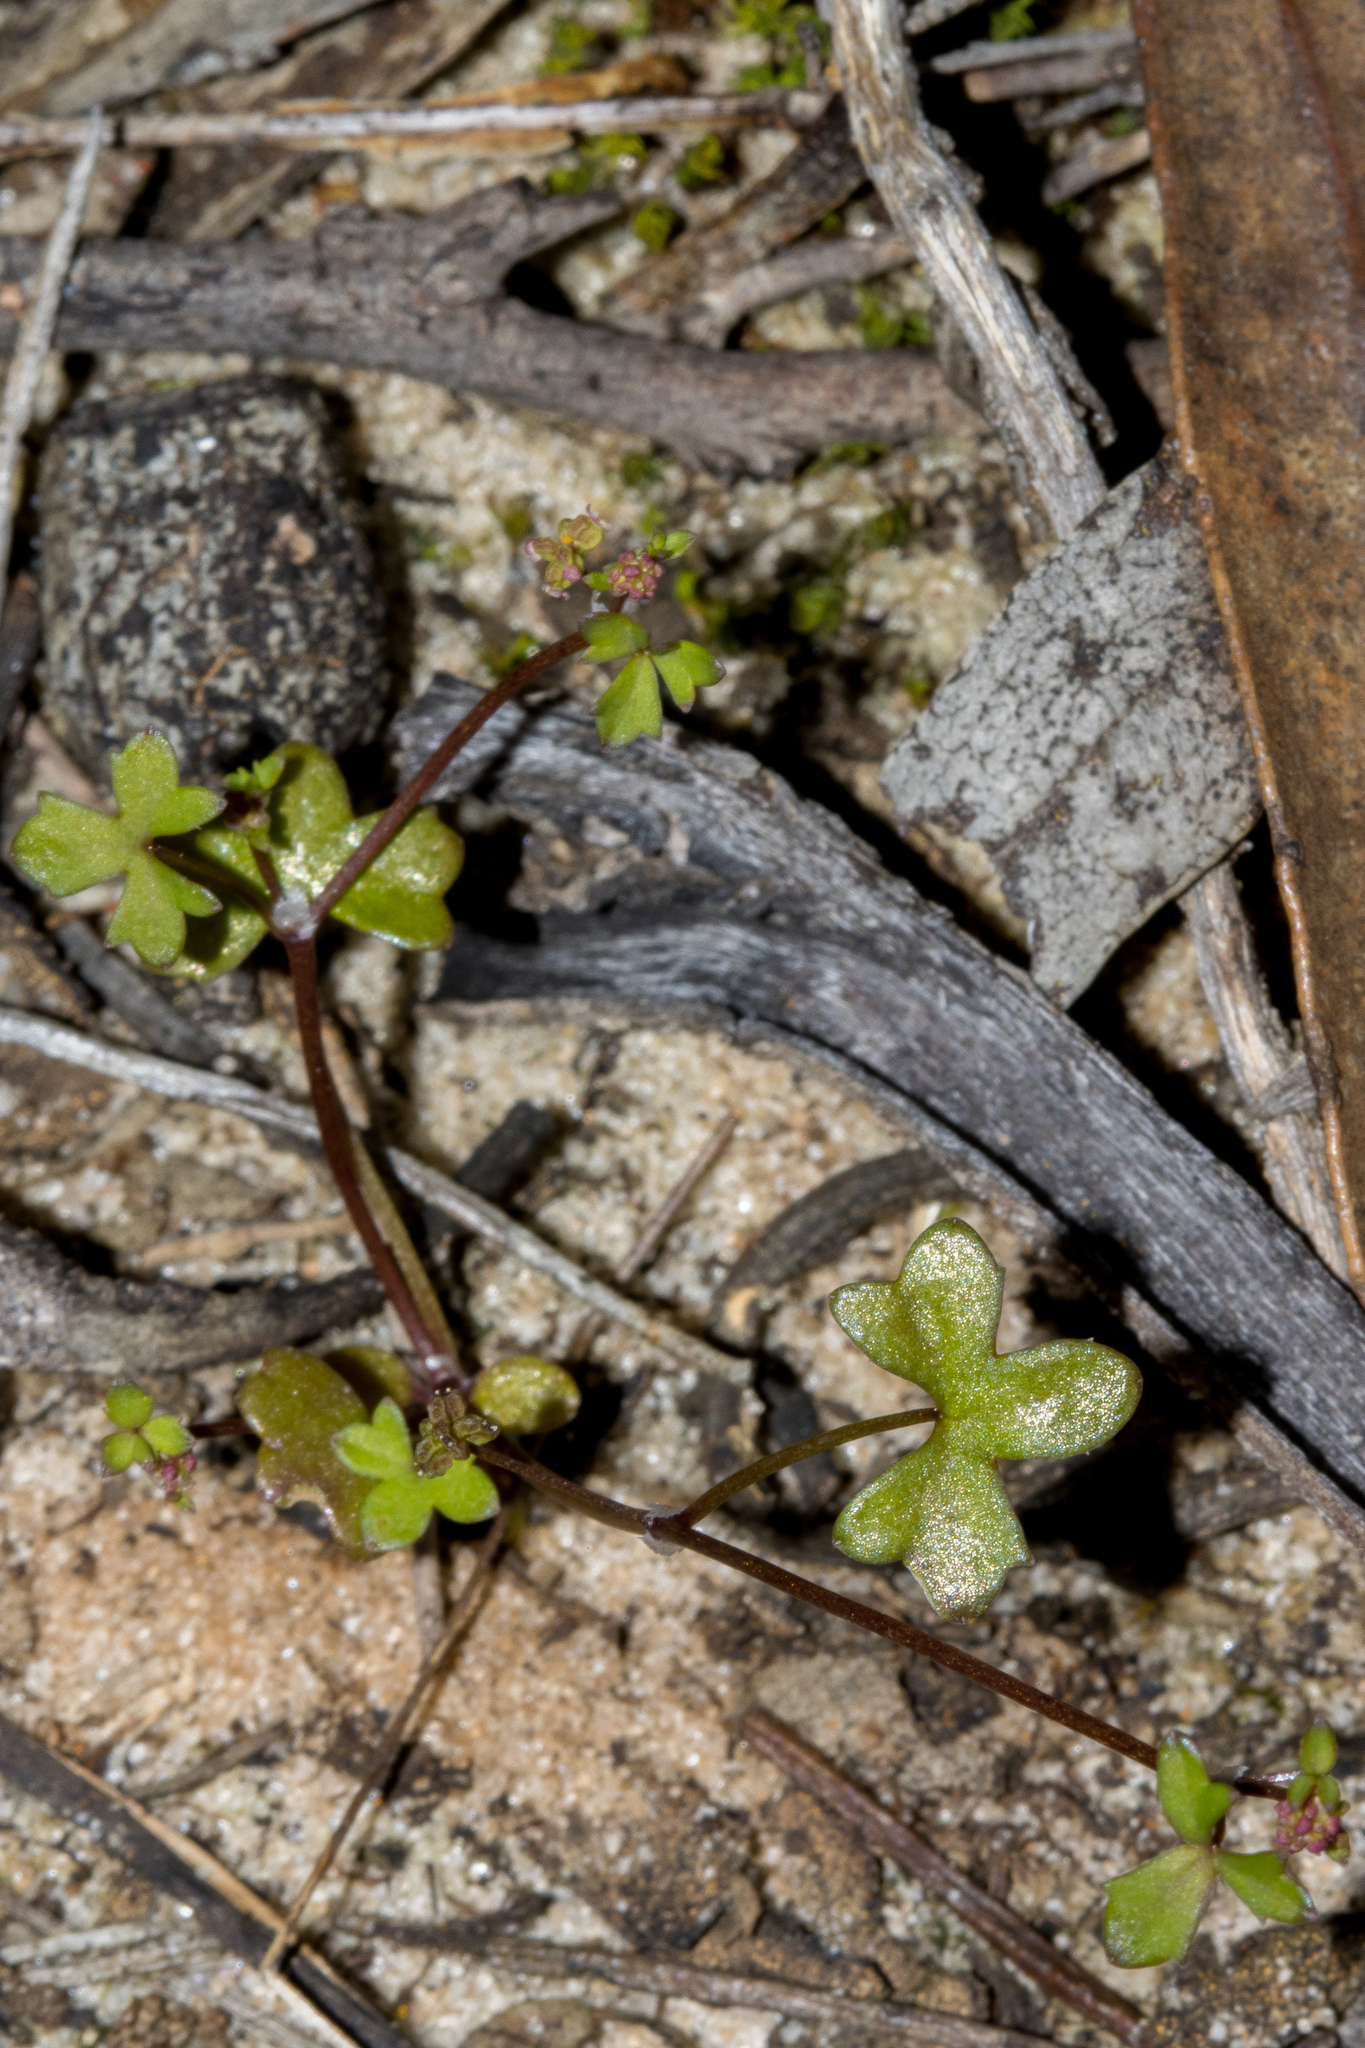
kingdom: Plantae
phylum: Tracheophyta
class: Magnoliopsida
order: Apiales
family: Araliaceae
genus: Hydrocotyle
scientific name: Hydrocotyle rugulosa
